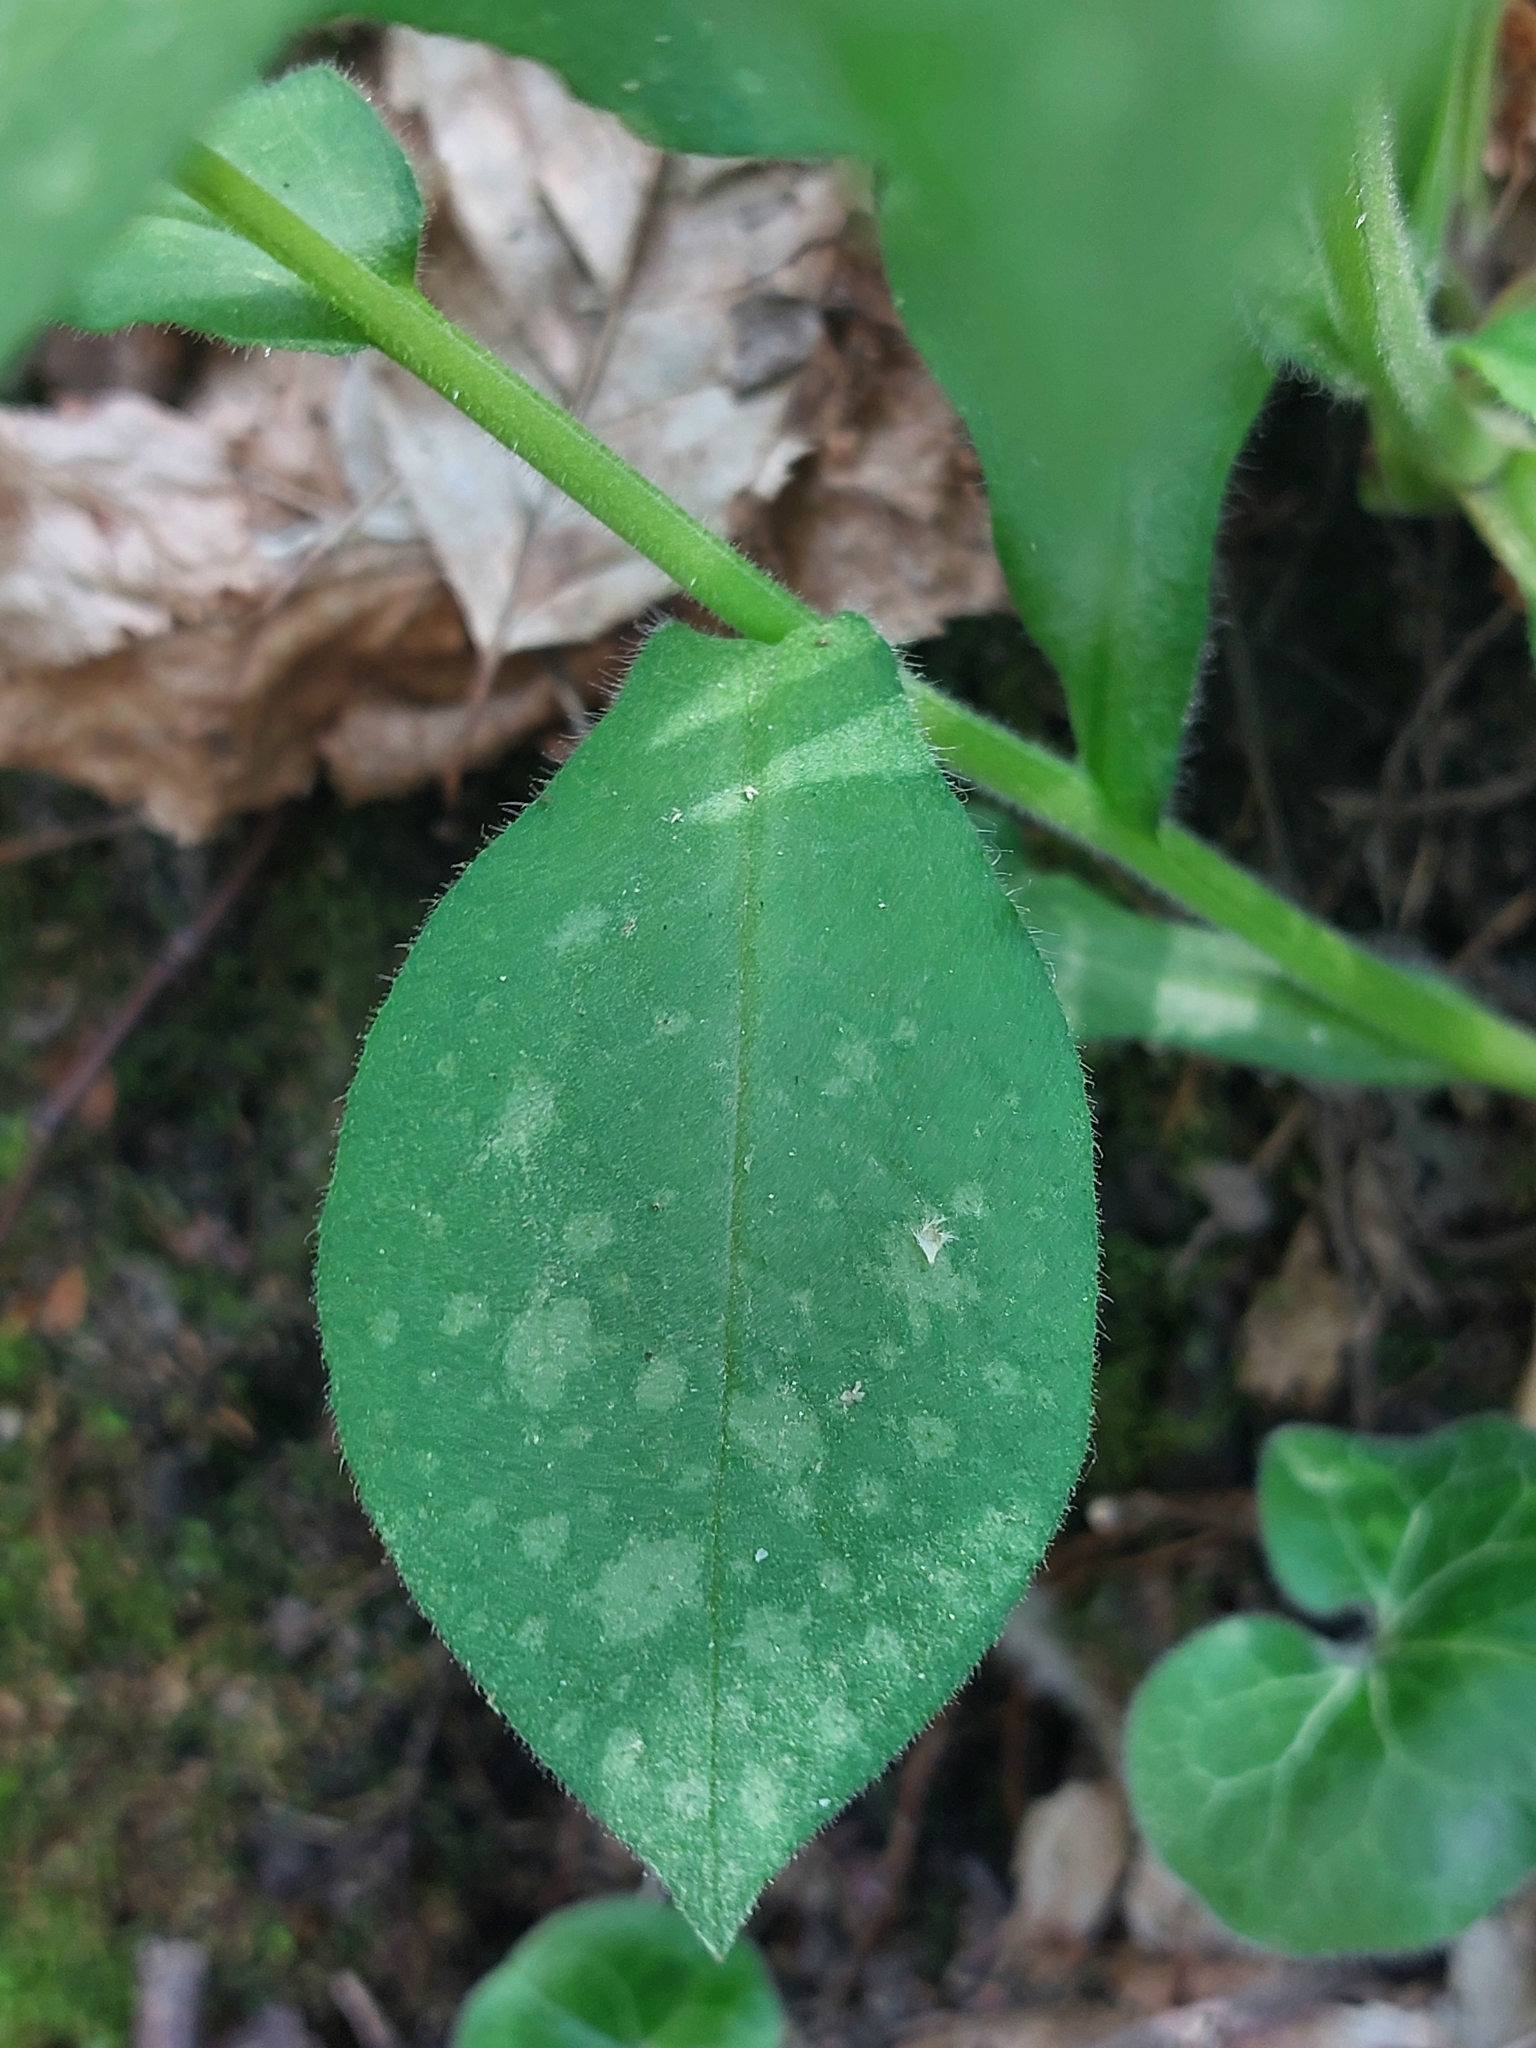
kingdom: Plantae
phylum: Tracheophyta
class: Magnoliopsida
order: Boraginales
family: Boraginaceae
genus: Pulmonaria
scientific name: Pulmonaria obscura
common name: Suffolk lungwort
